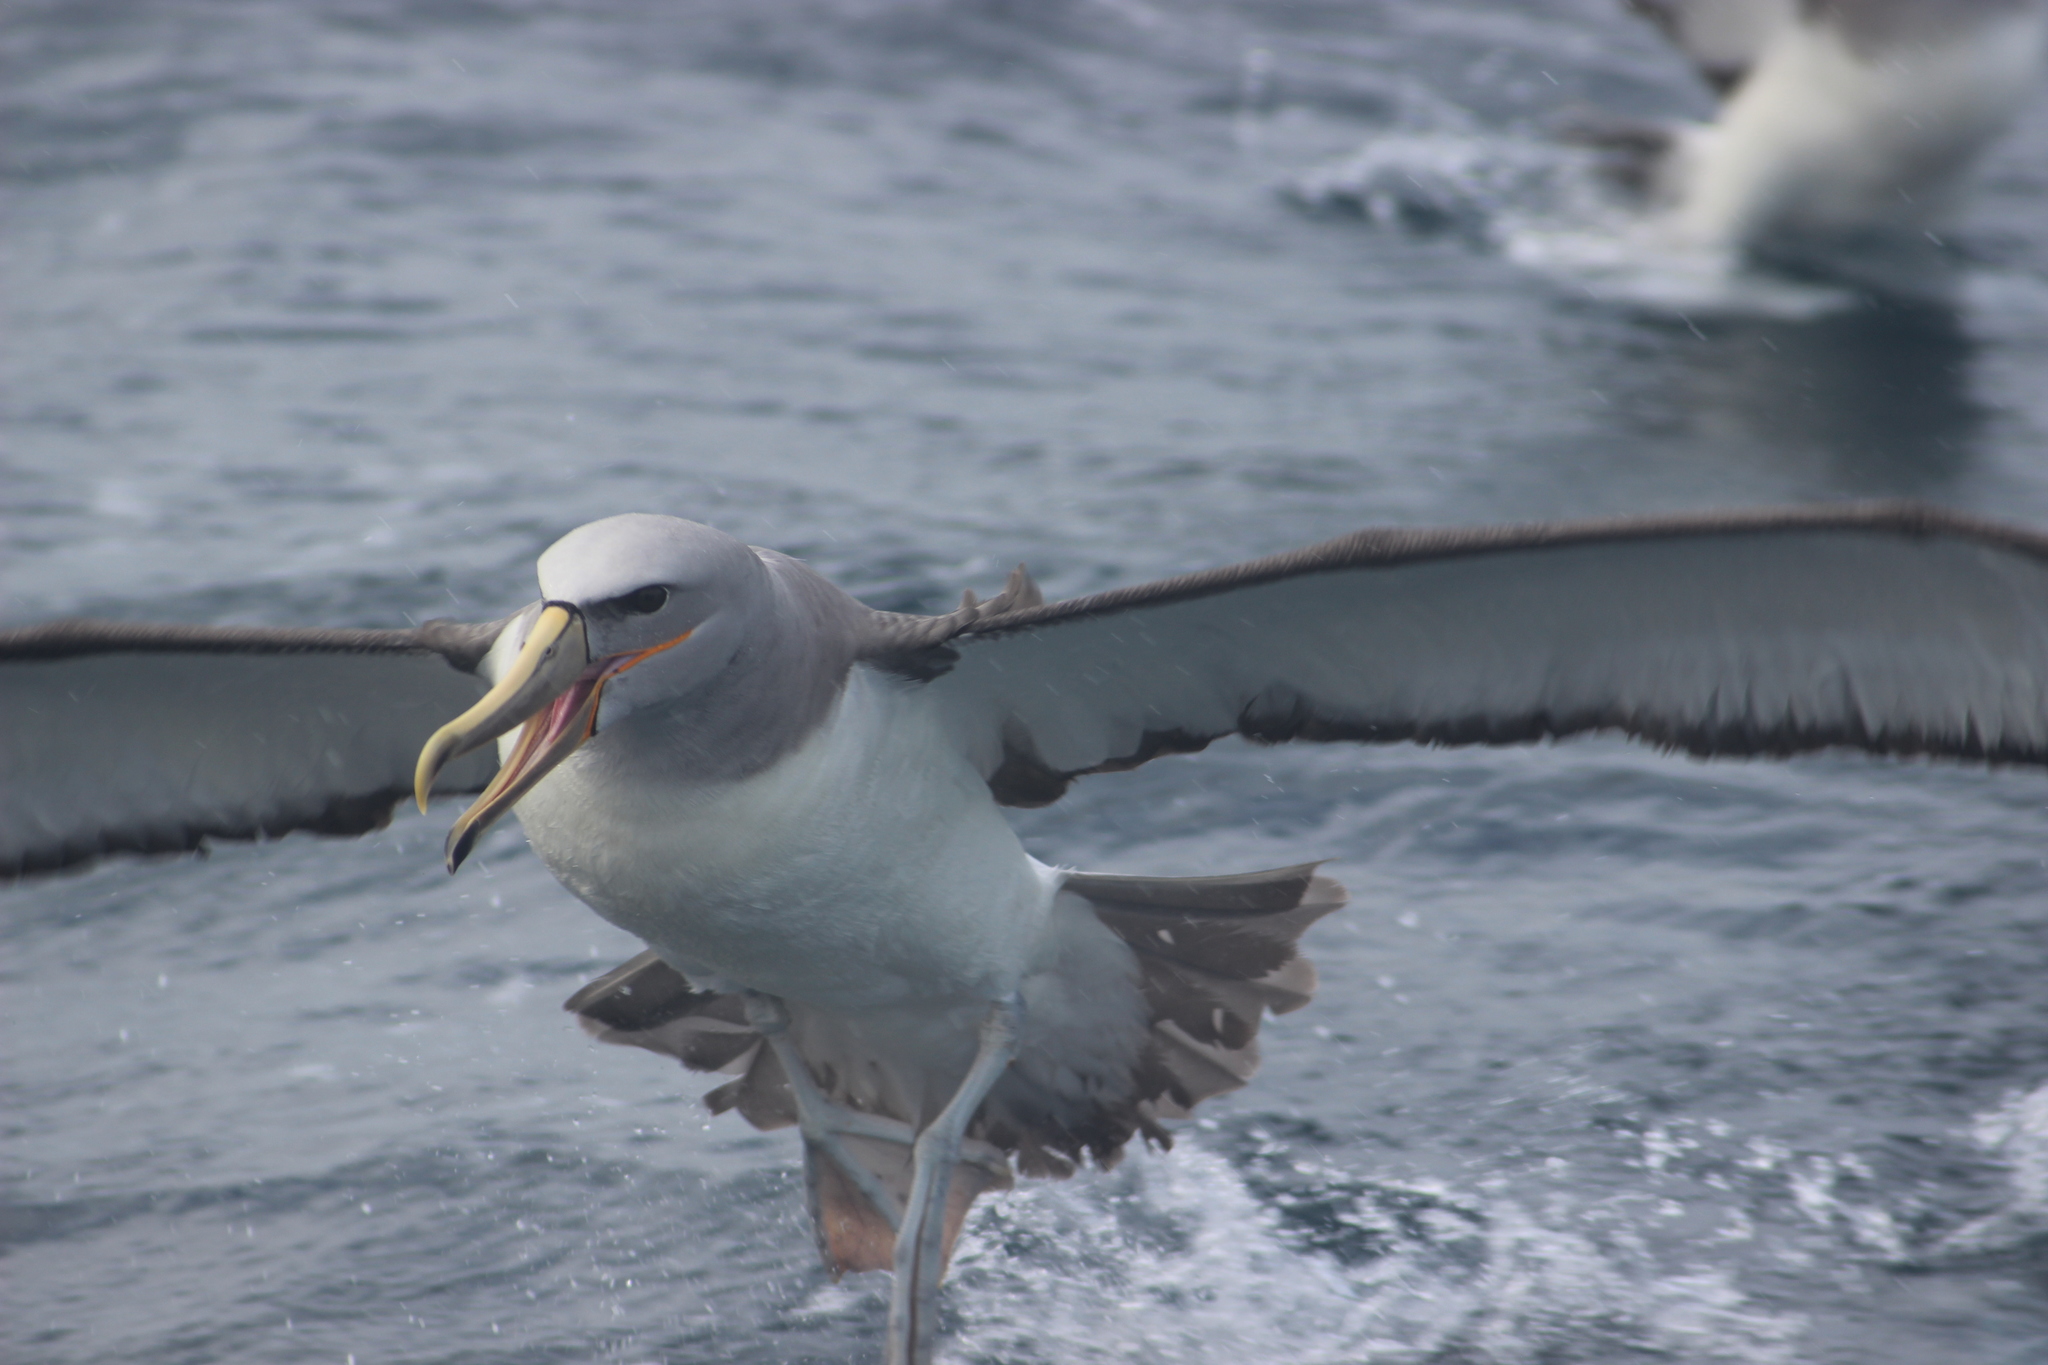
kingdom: Animalia
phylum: Chordata
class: Aves
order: Procellariiformes
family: Diomedeidae
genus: Thalassarche
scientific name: Thalassarche salvini
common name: Salvin's albatross
